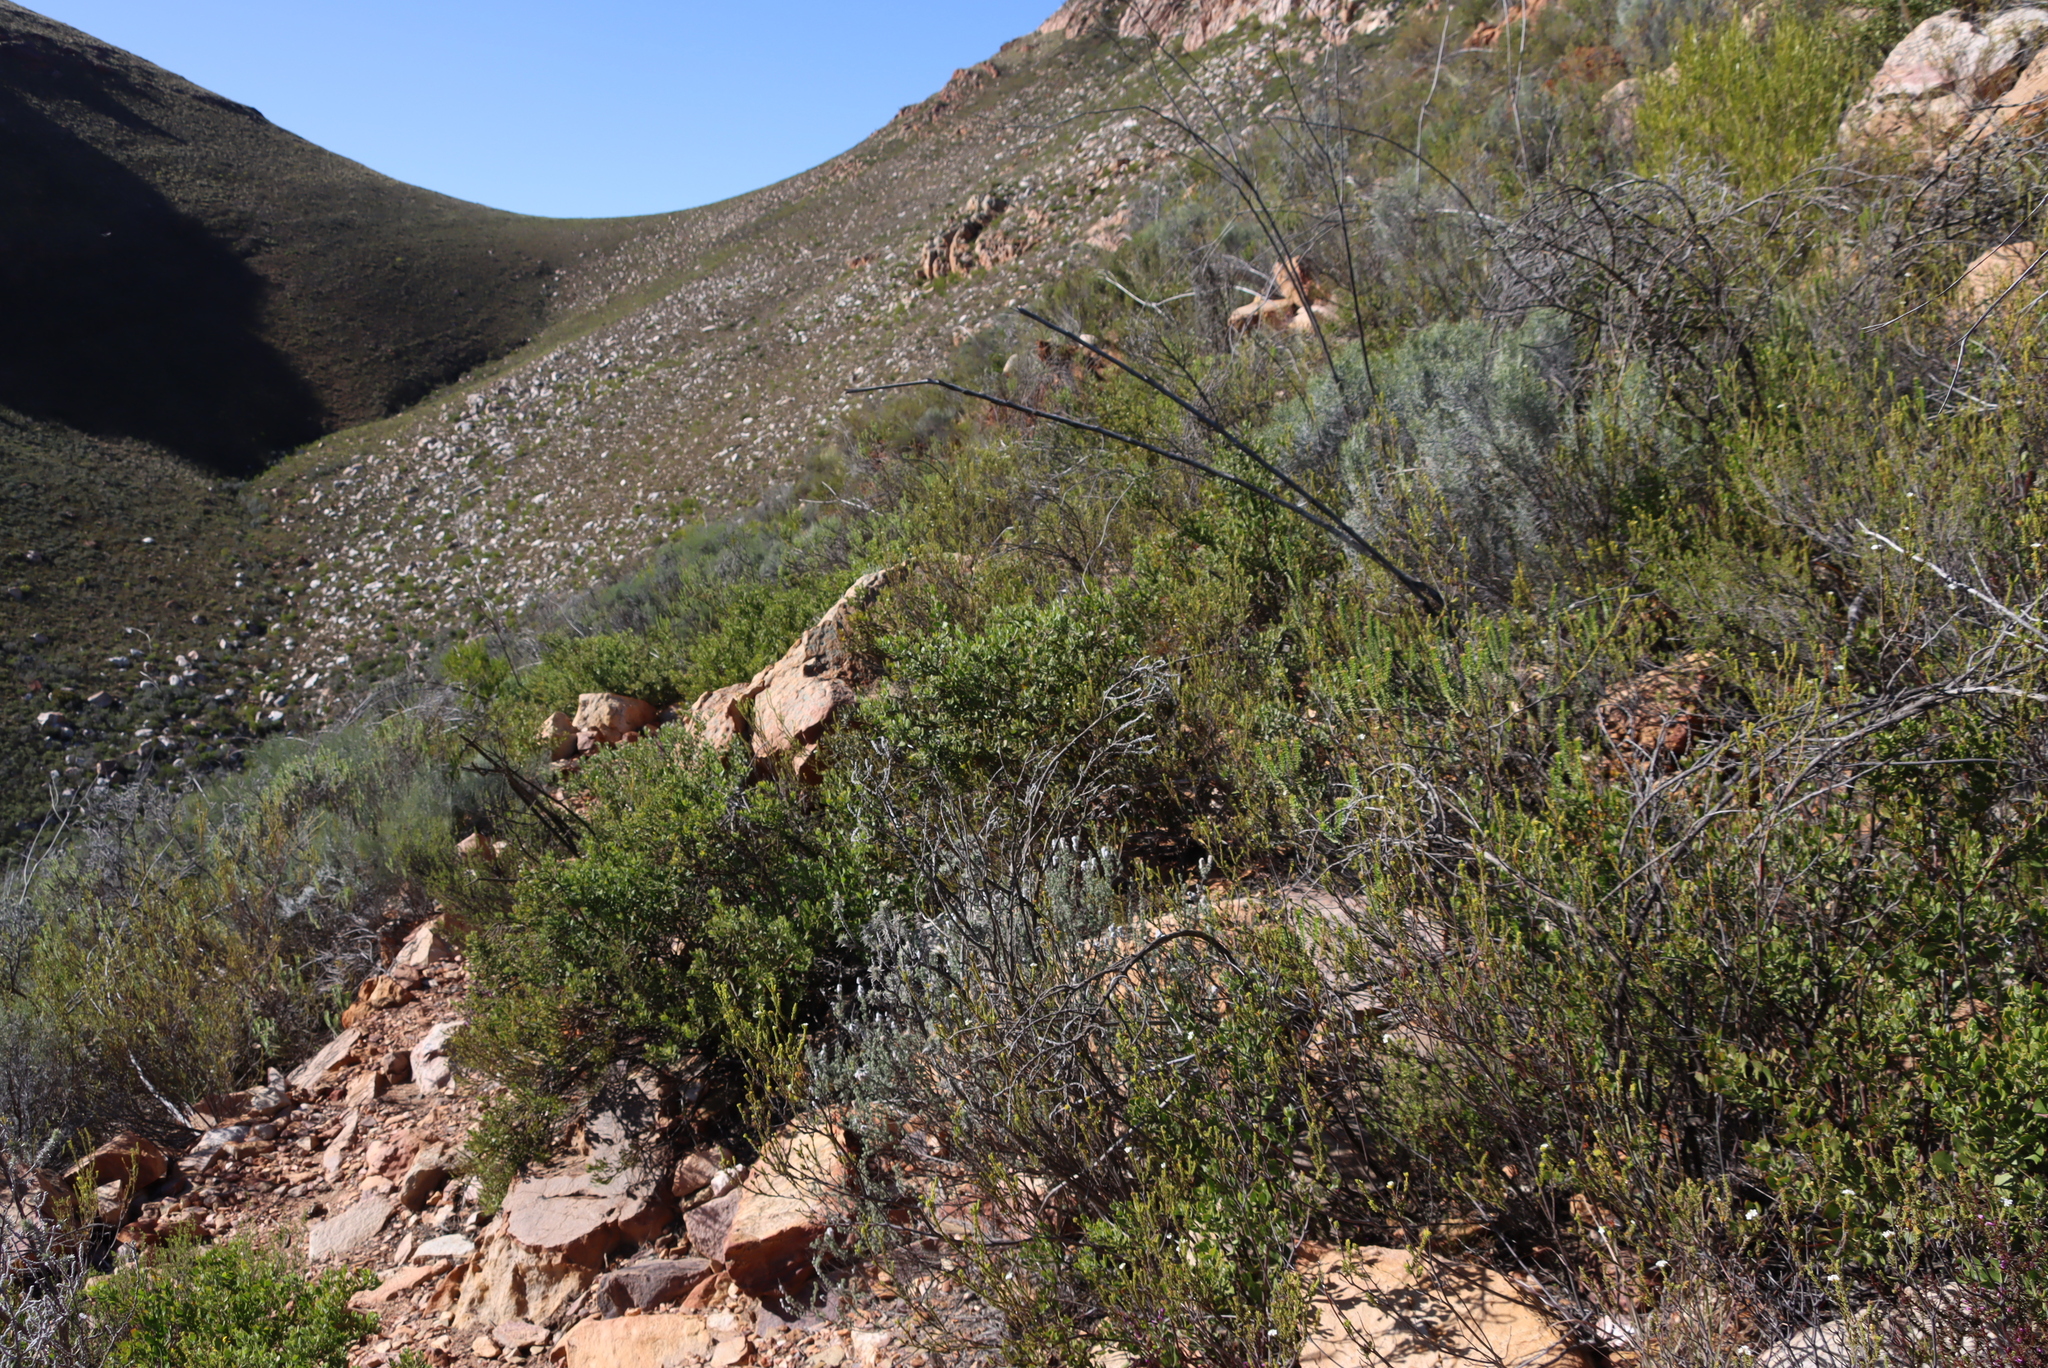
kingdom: Plantae
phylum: Tracheophyta
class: Magnoliopsida
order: Asterales
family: Asteraceae
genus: Osteospermum
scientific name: Osteospermum moniliferum
